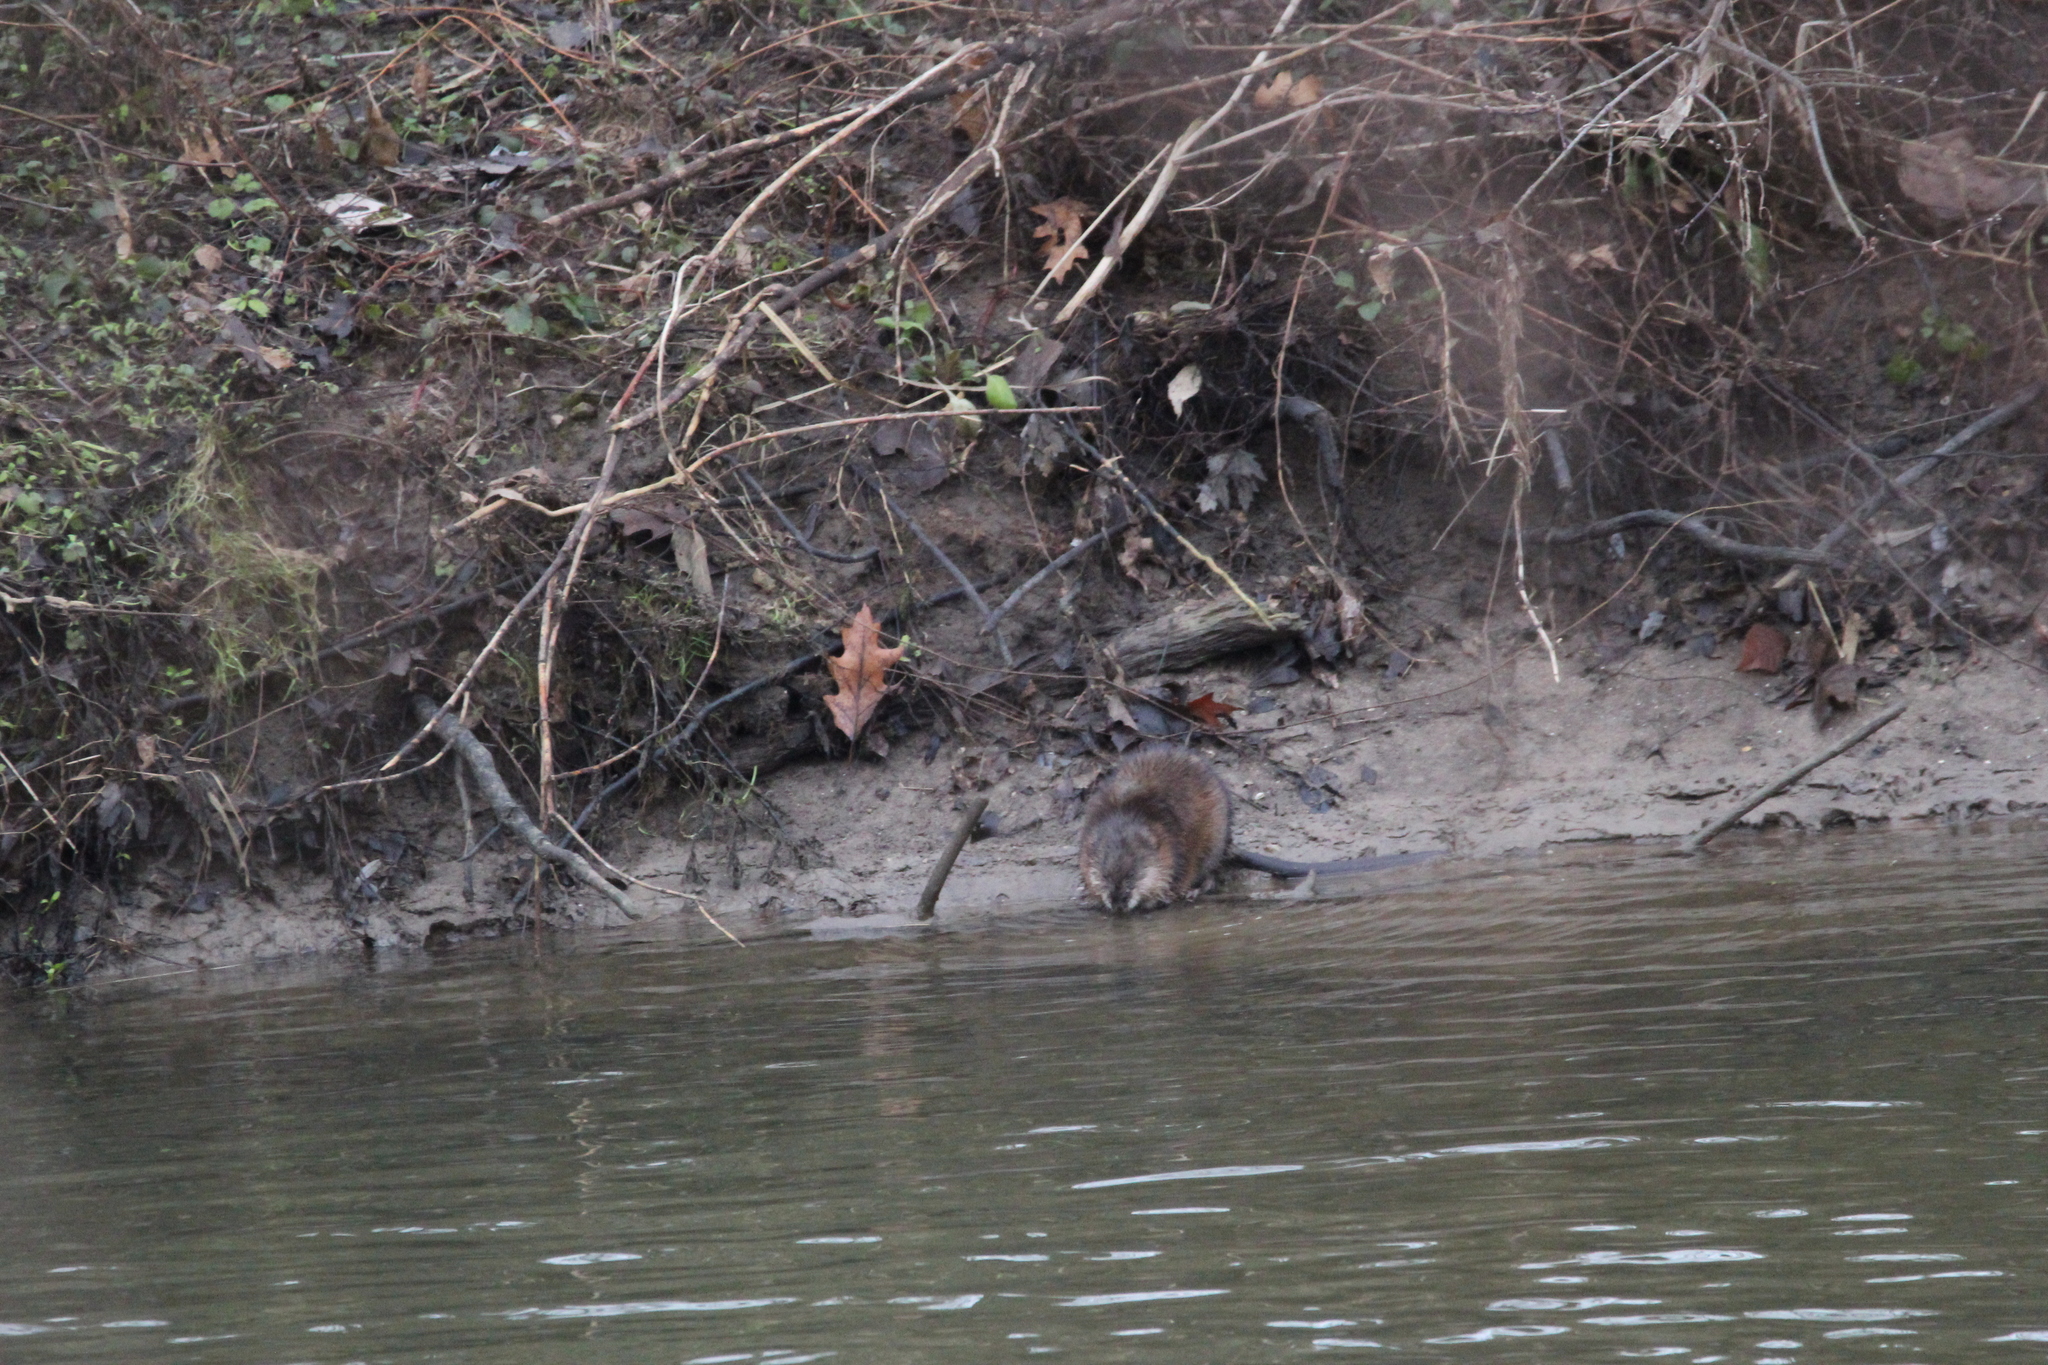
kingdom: Animalia
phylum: Chordata
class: Mammalia
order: Rodentia
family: Cricetidae
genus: Ondatra
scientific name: Ondatra zibethicus
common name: Muskrat
